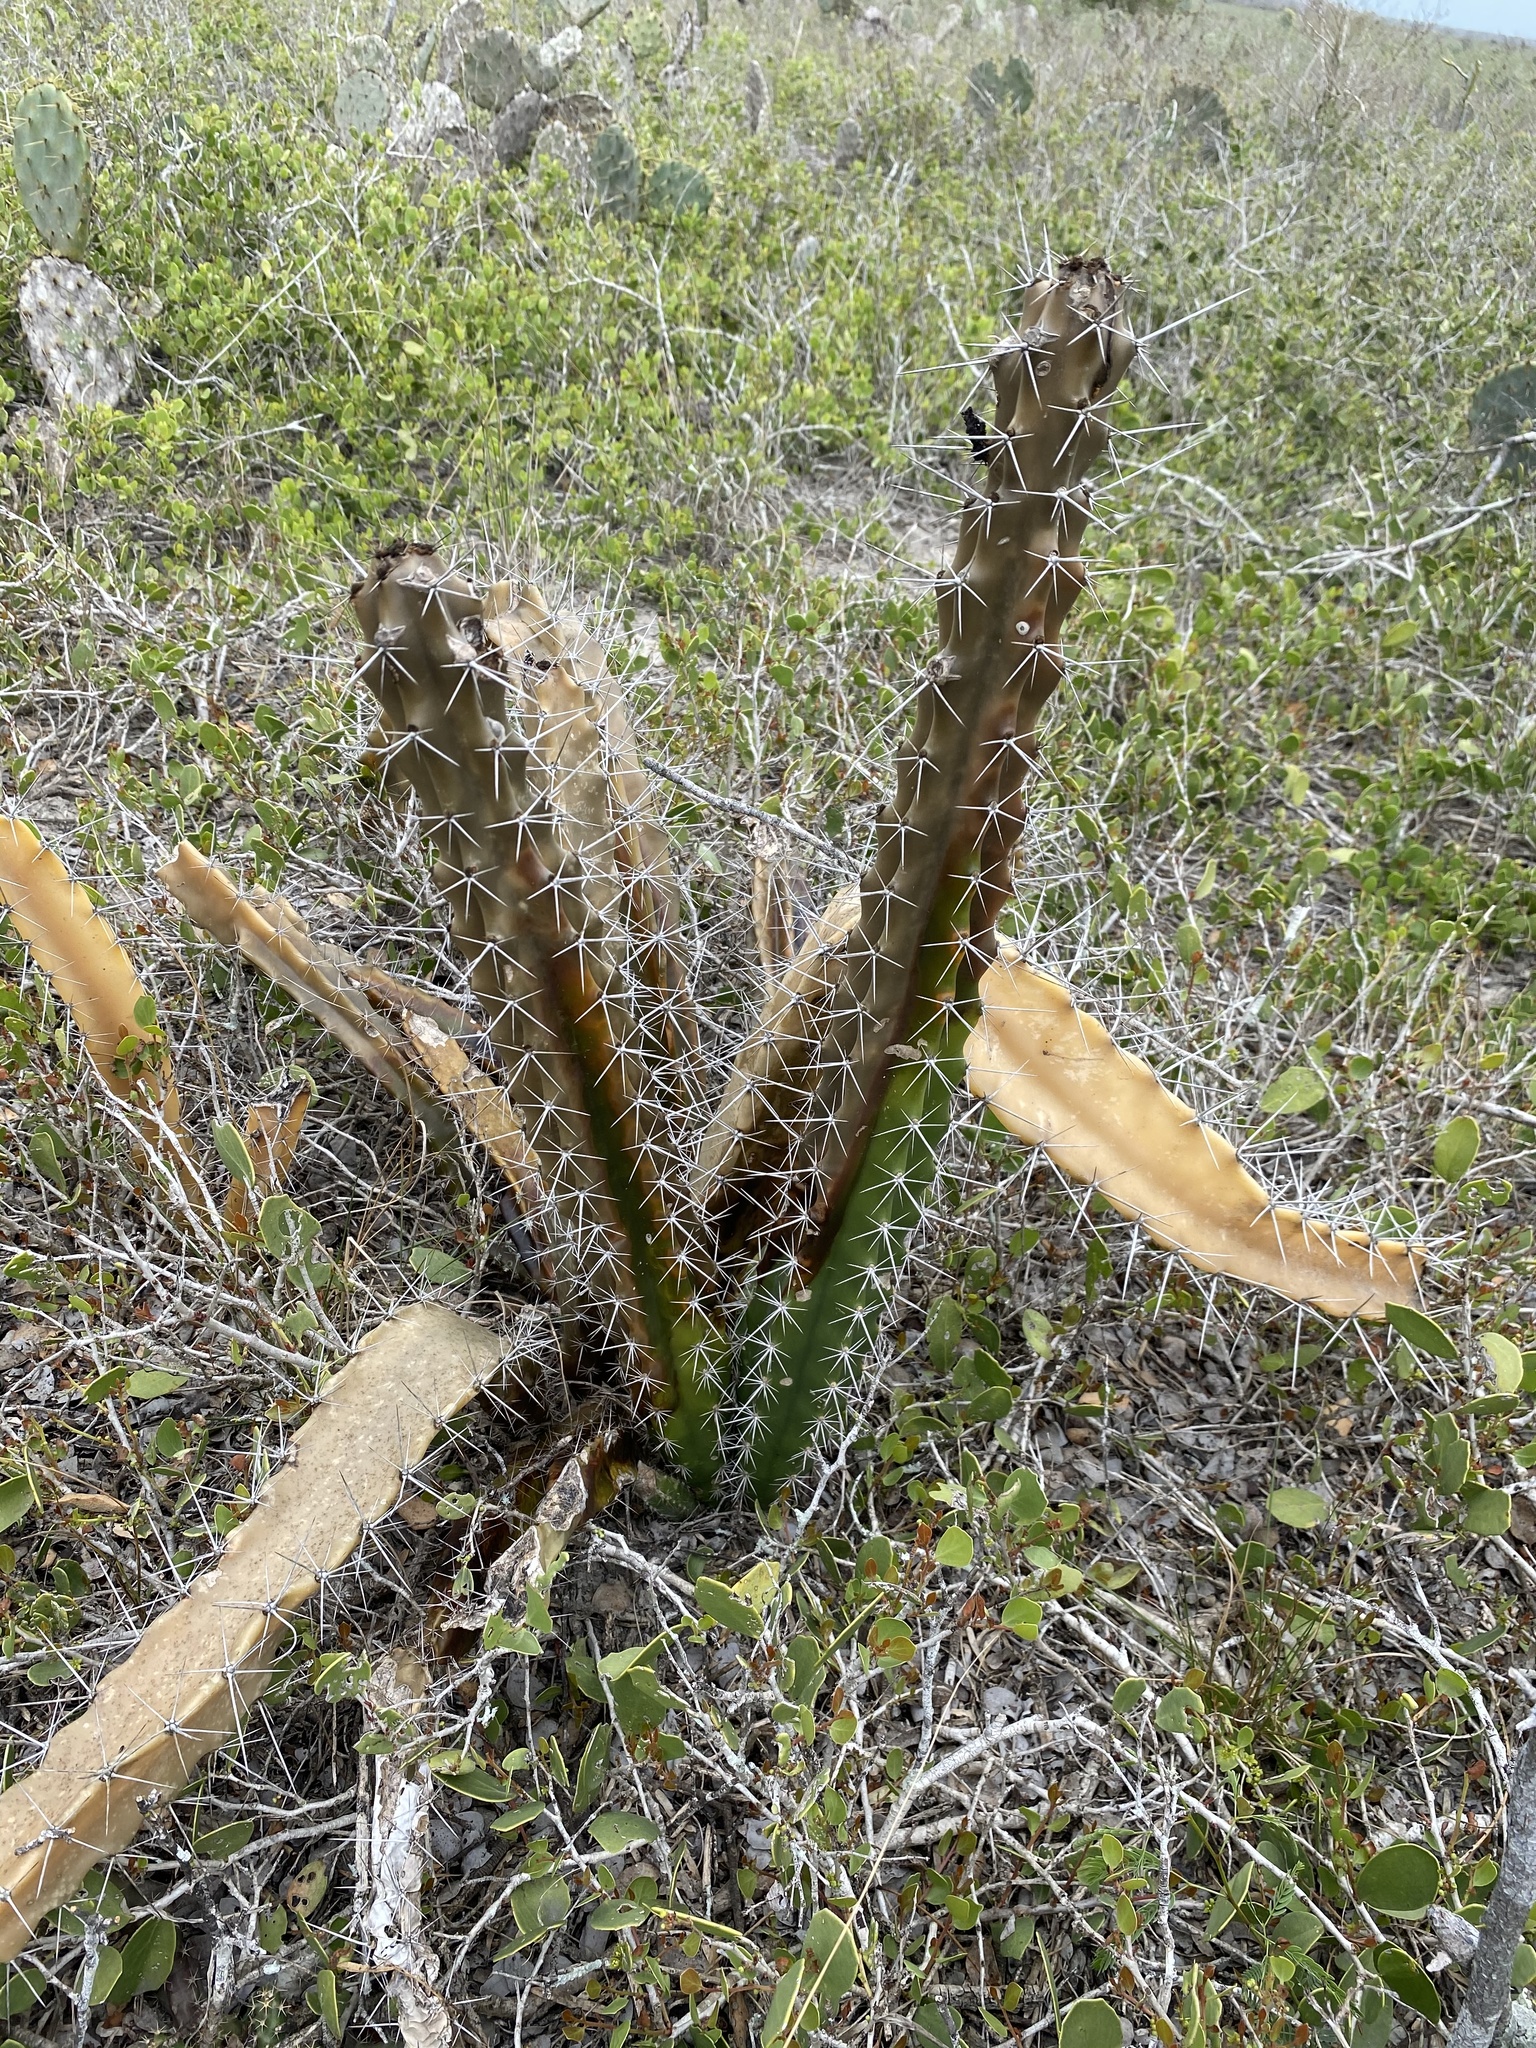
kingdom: Plantae
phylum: Tracheophyta
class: Magnoliopsida
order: Caryophyllales
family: Cactaceae
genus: Acanthocereus
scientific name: Acanthocereus tetragonus
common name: Triangle cactus
